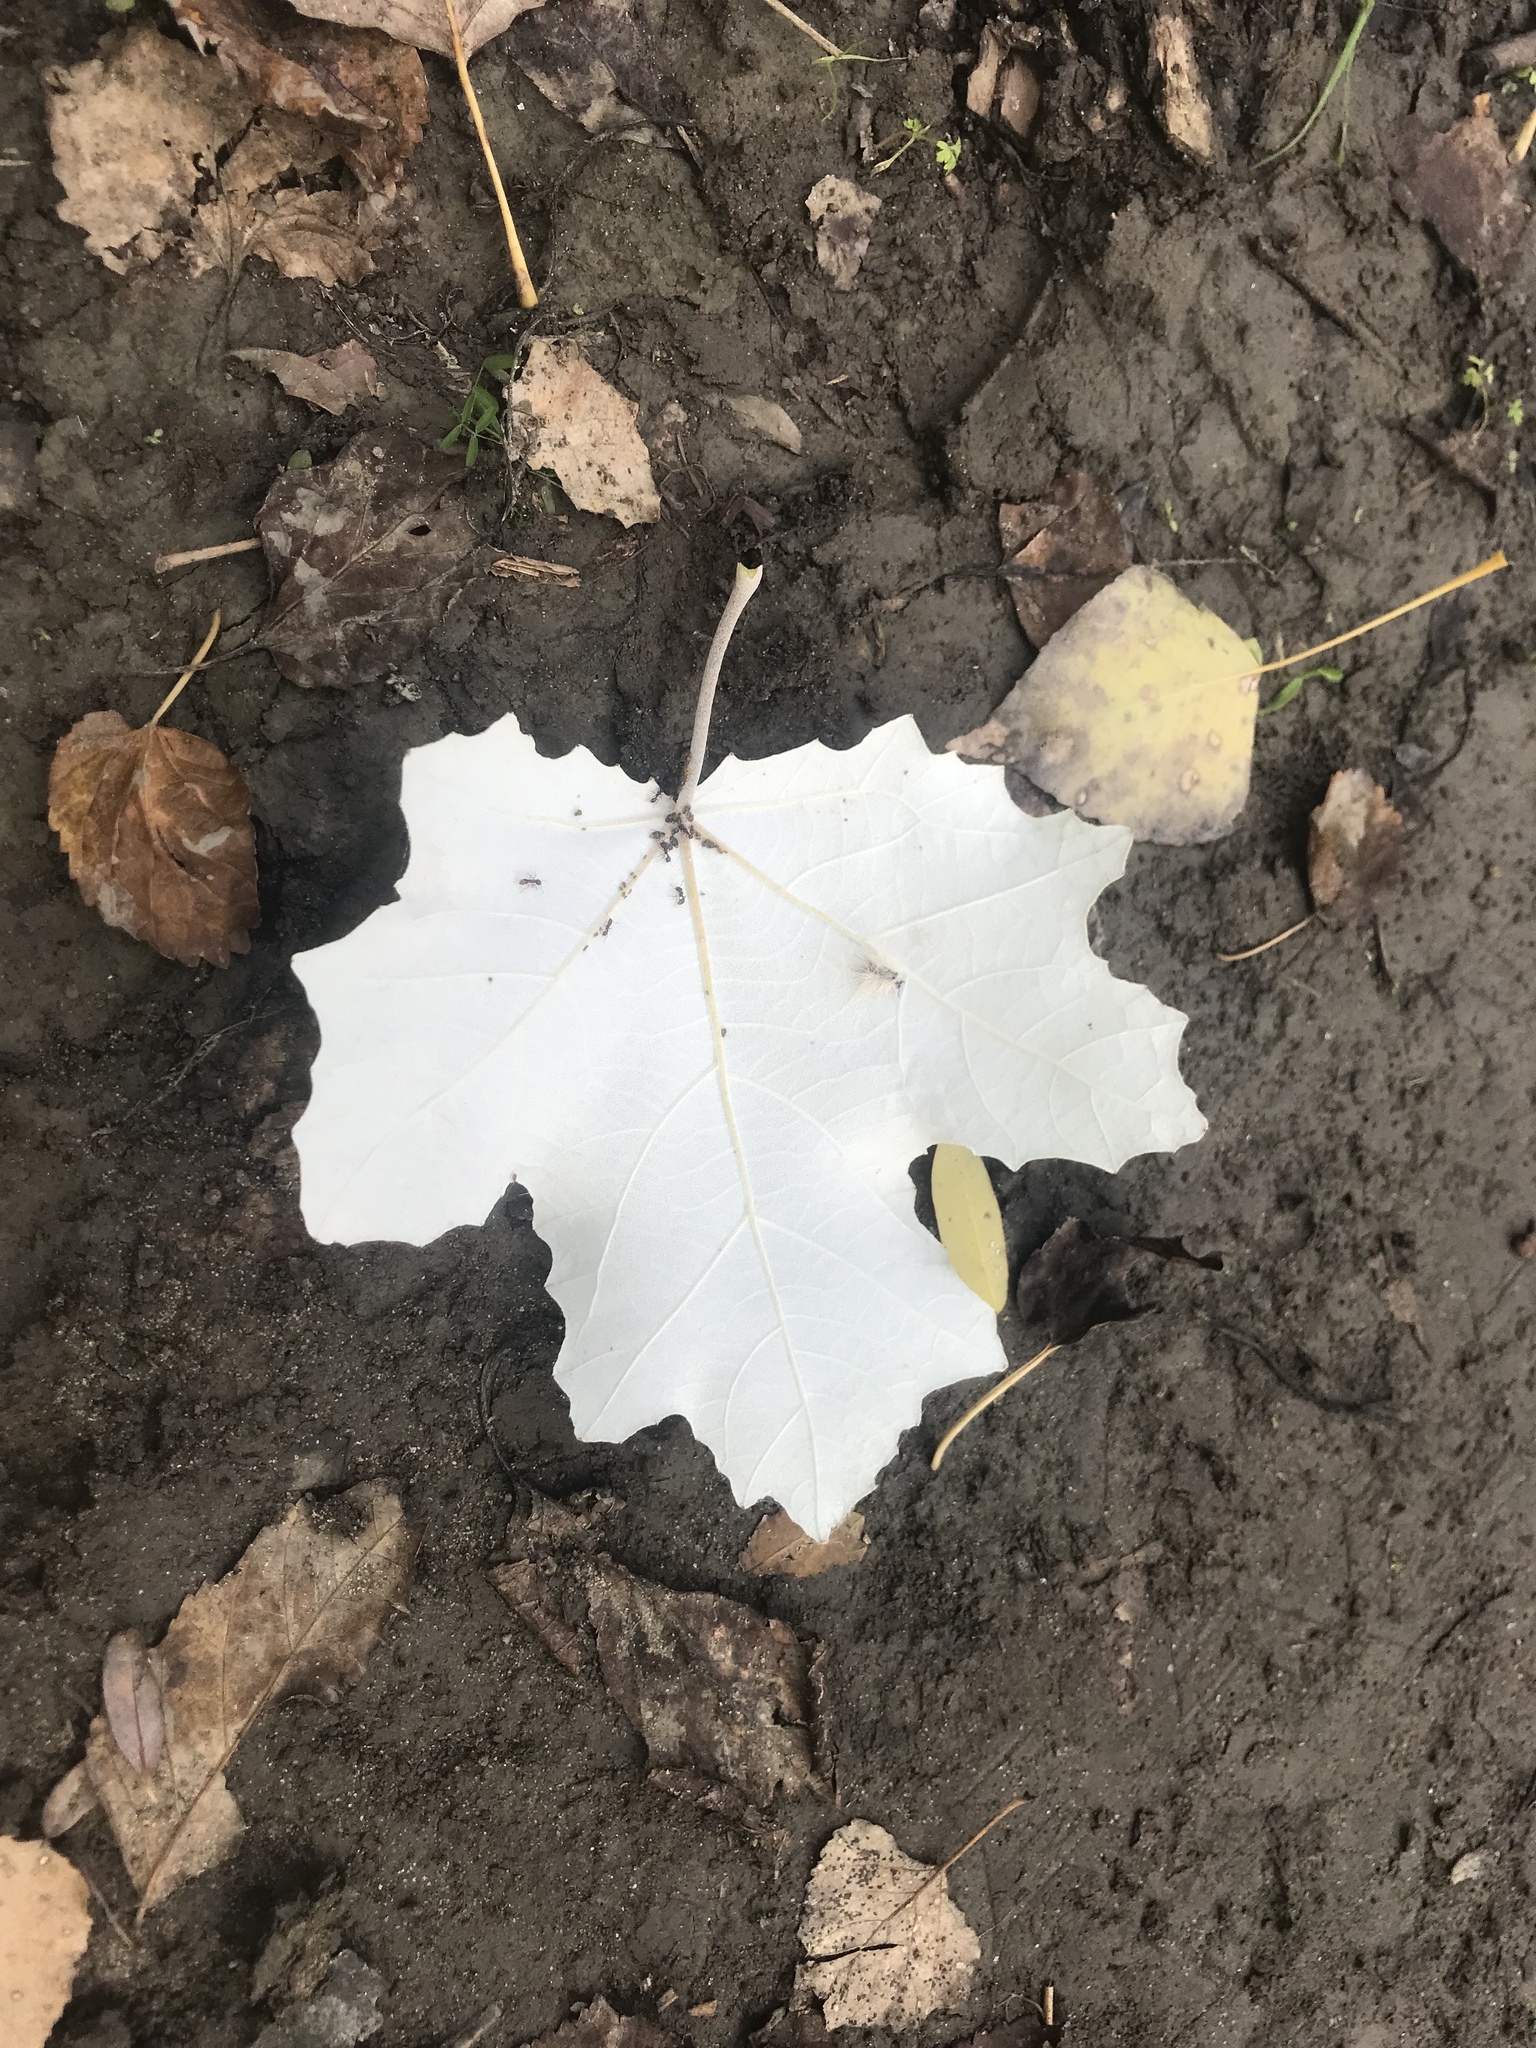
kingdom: Plantae
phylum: Tracheophyta
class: Magnoliopsida
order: Malpighiales
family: Salicaceae
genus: Populus
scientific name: Populus alba
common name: White poplar
